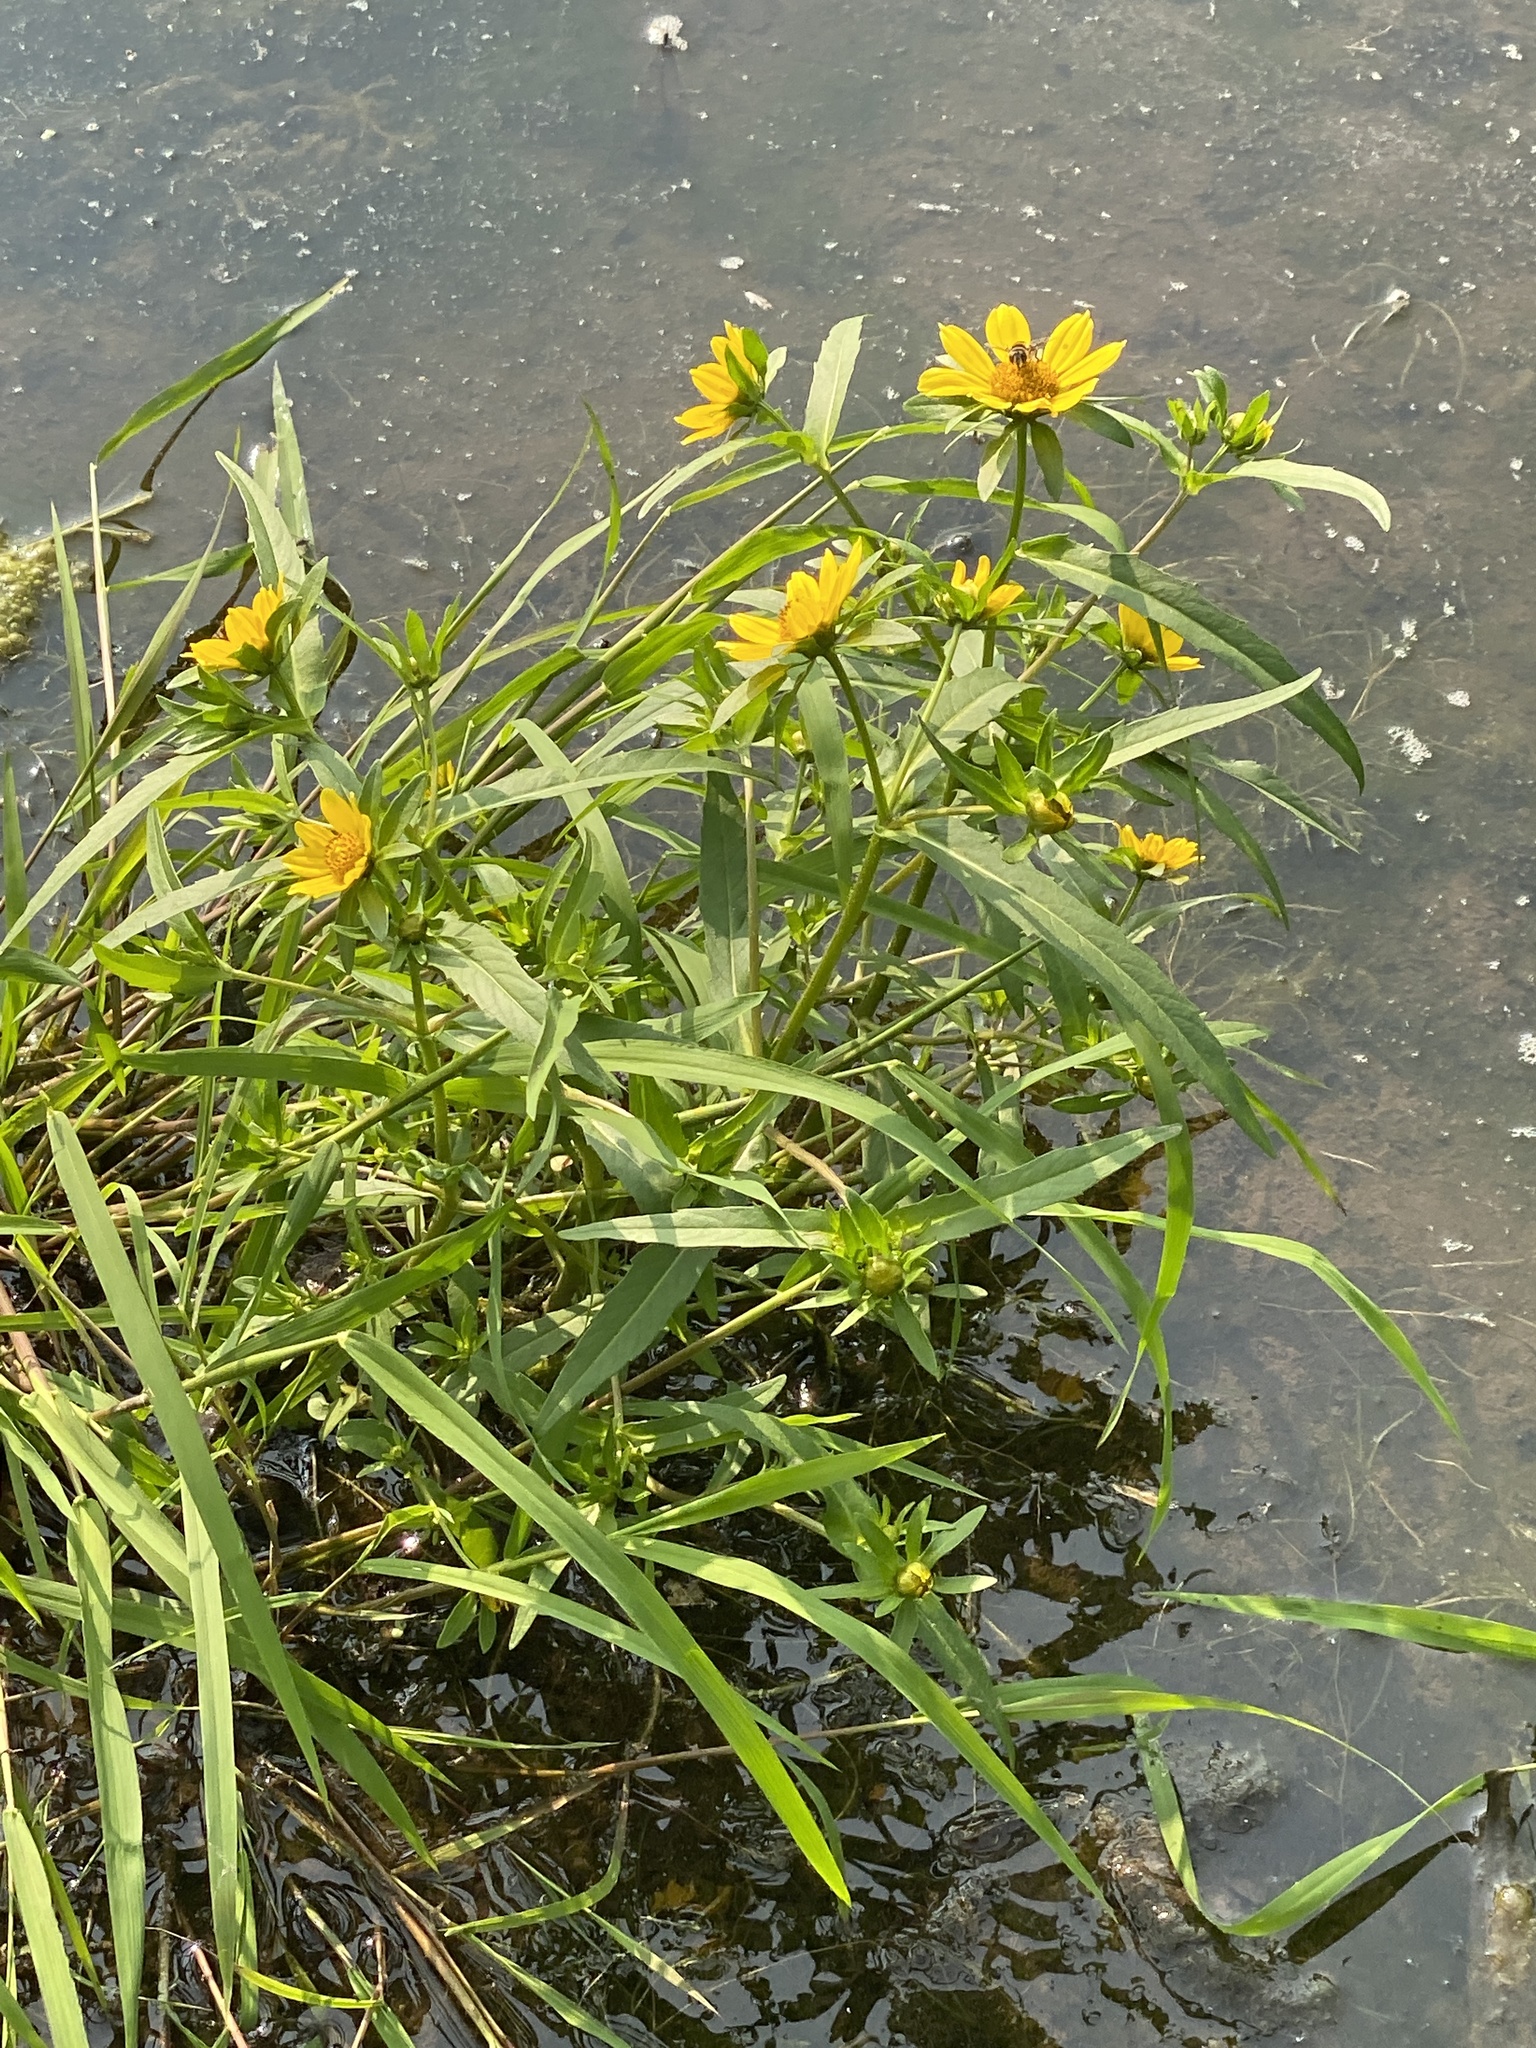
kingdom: Plantae
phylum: Tracheophyta
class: Magnoliopsida
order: Asterales
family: Asteraceae
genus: Bidens
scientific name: Bidens cernua
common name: Nodding bur-marigold
